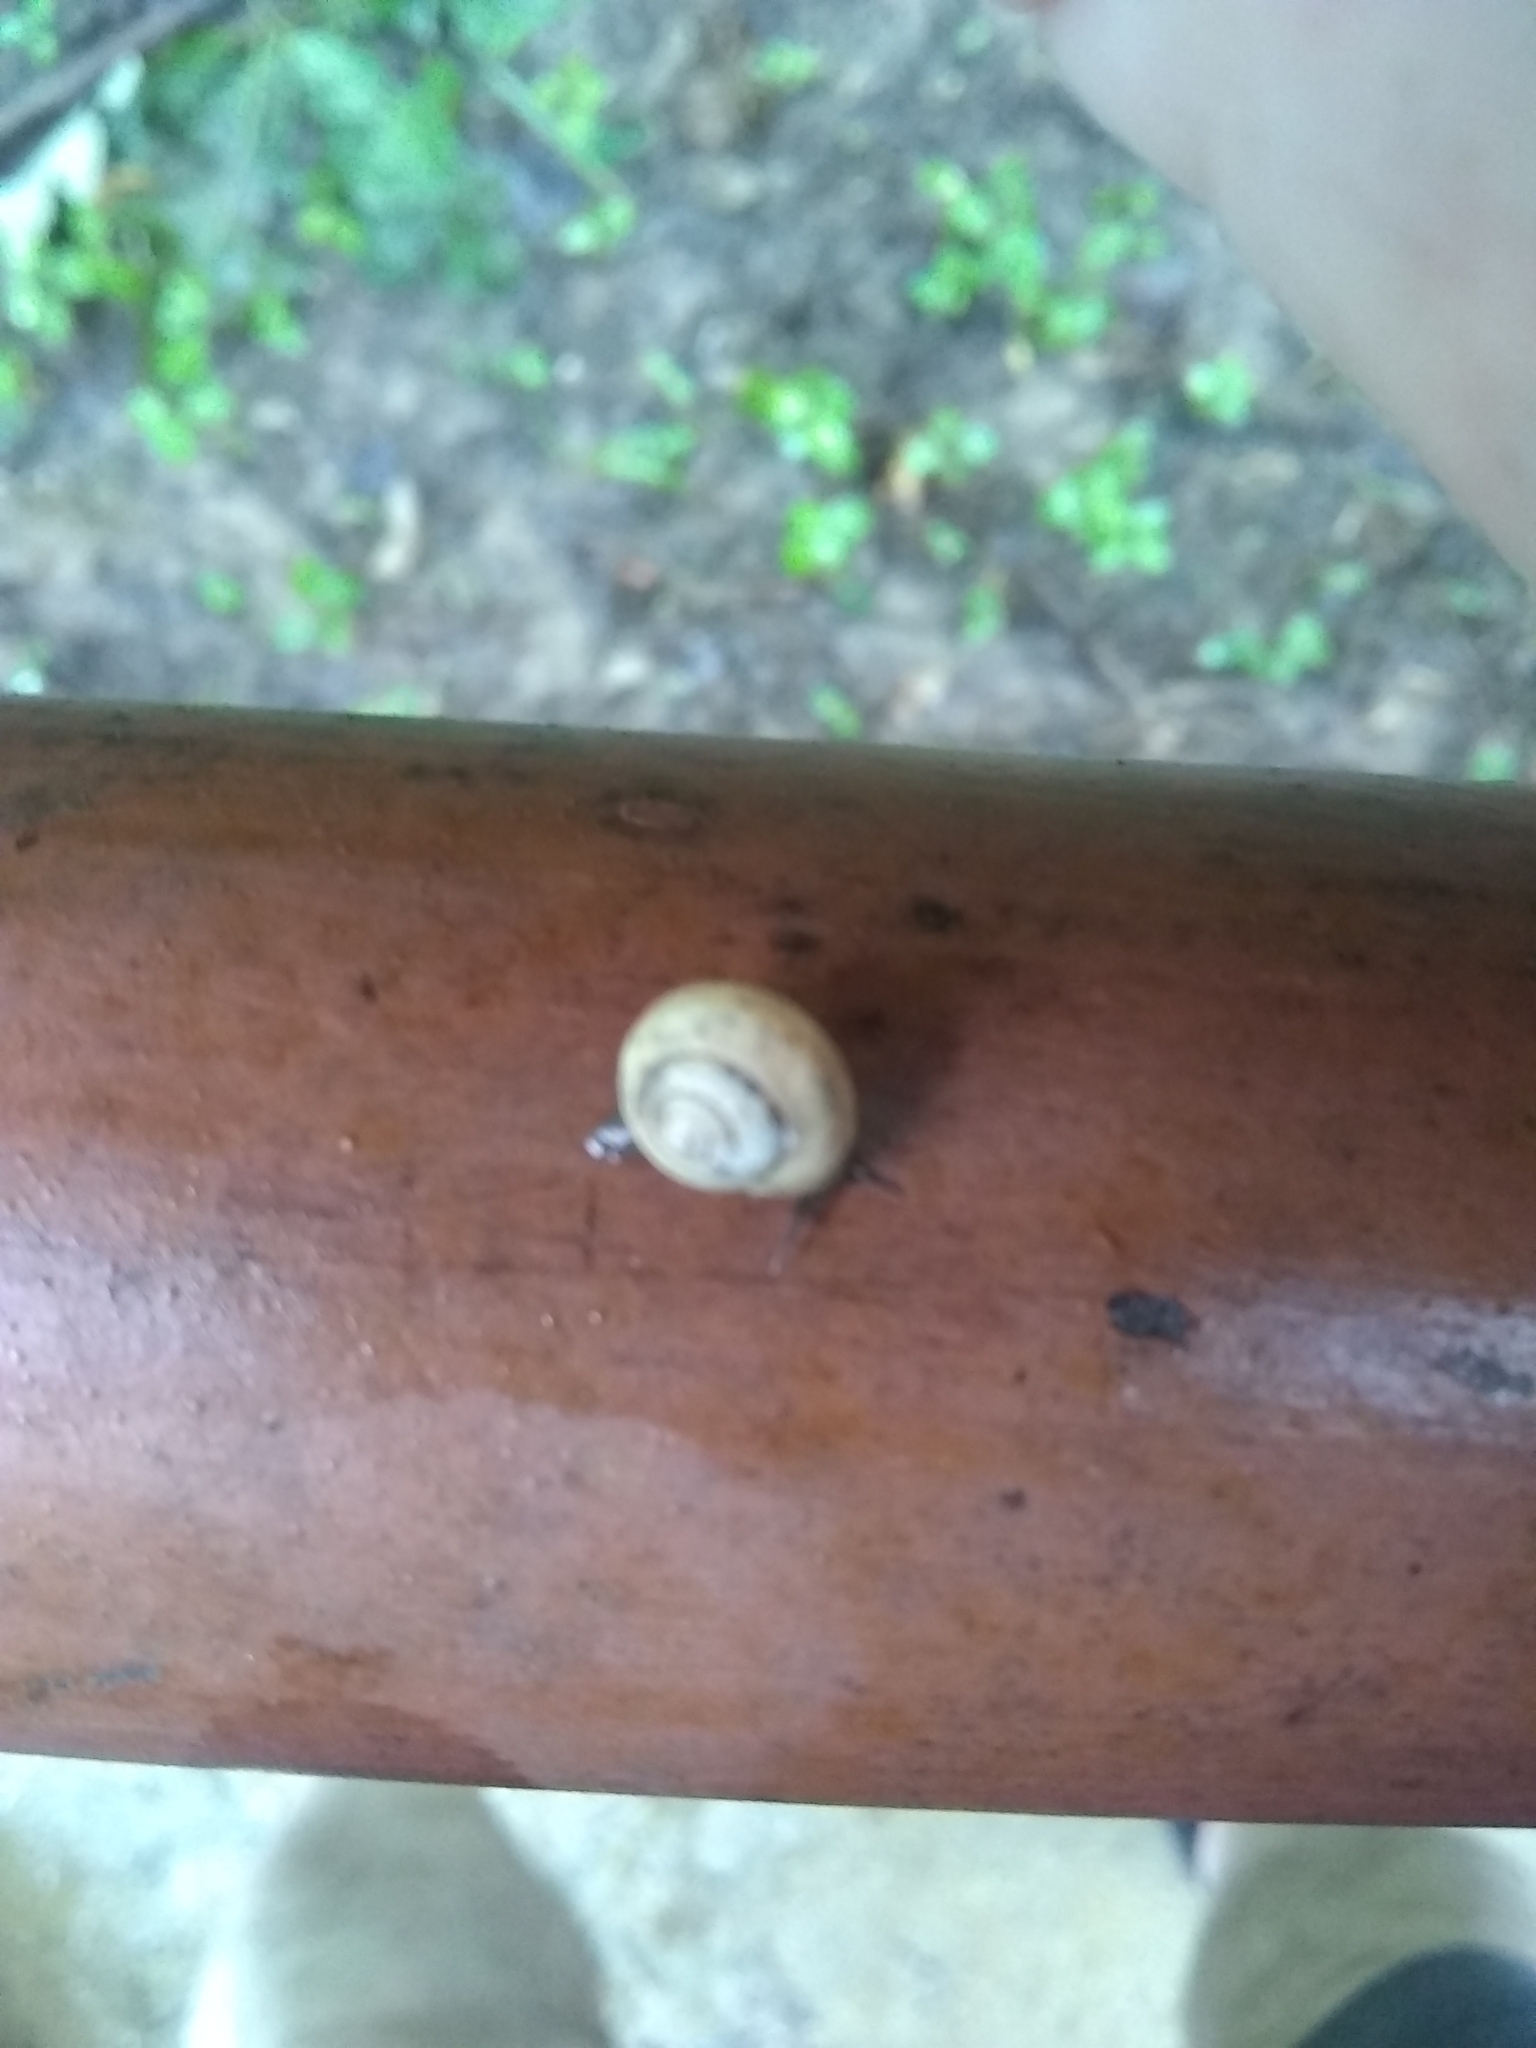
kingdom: Animalia
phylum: Mollusca
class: Gastropoda
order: Cycloneritida
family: Helicinidae
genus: Helicina
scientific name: Helicina orbiculata
